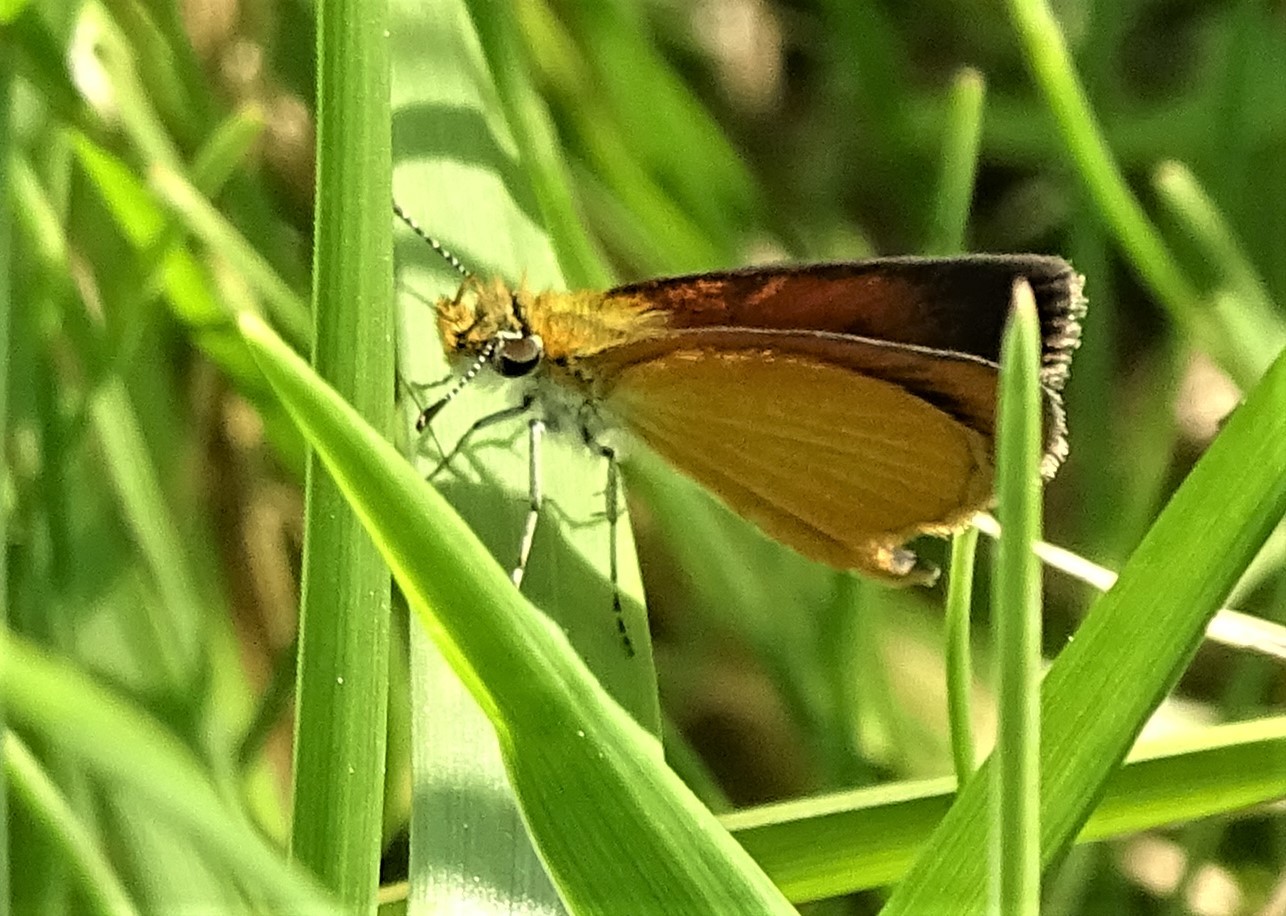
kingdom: Animalia
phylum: Arthropoda
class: Insecta
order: Lepidoptera
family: Hesperiidae
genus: Ancyloxypha
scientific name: Ancyloxypha numitor
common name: Least skipper
